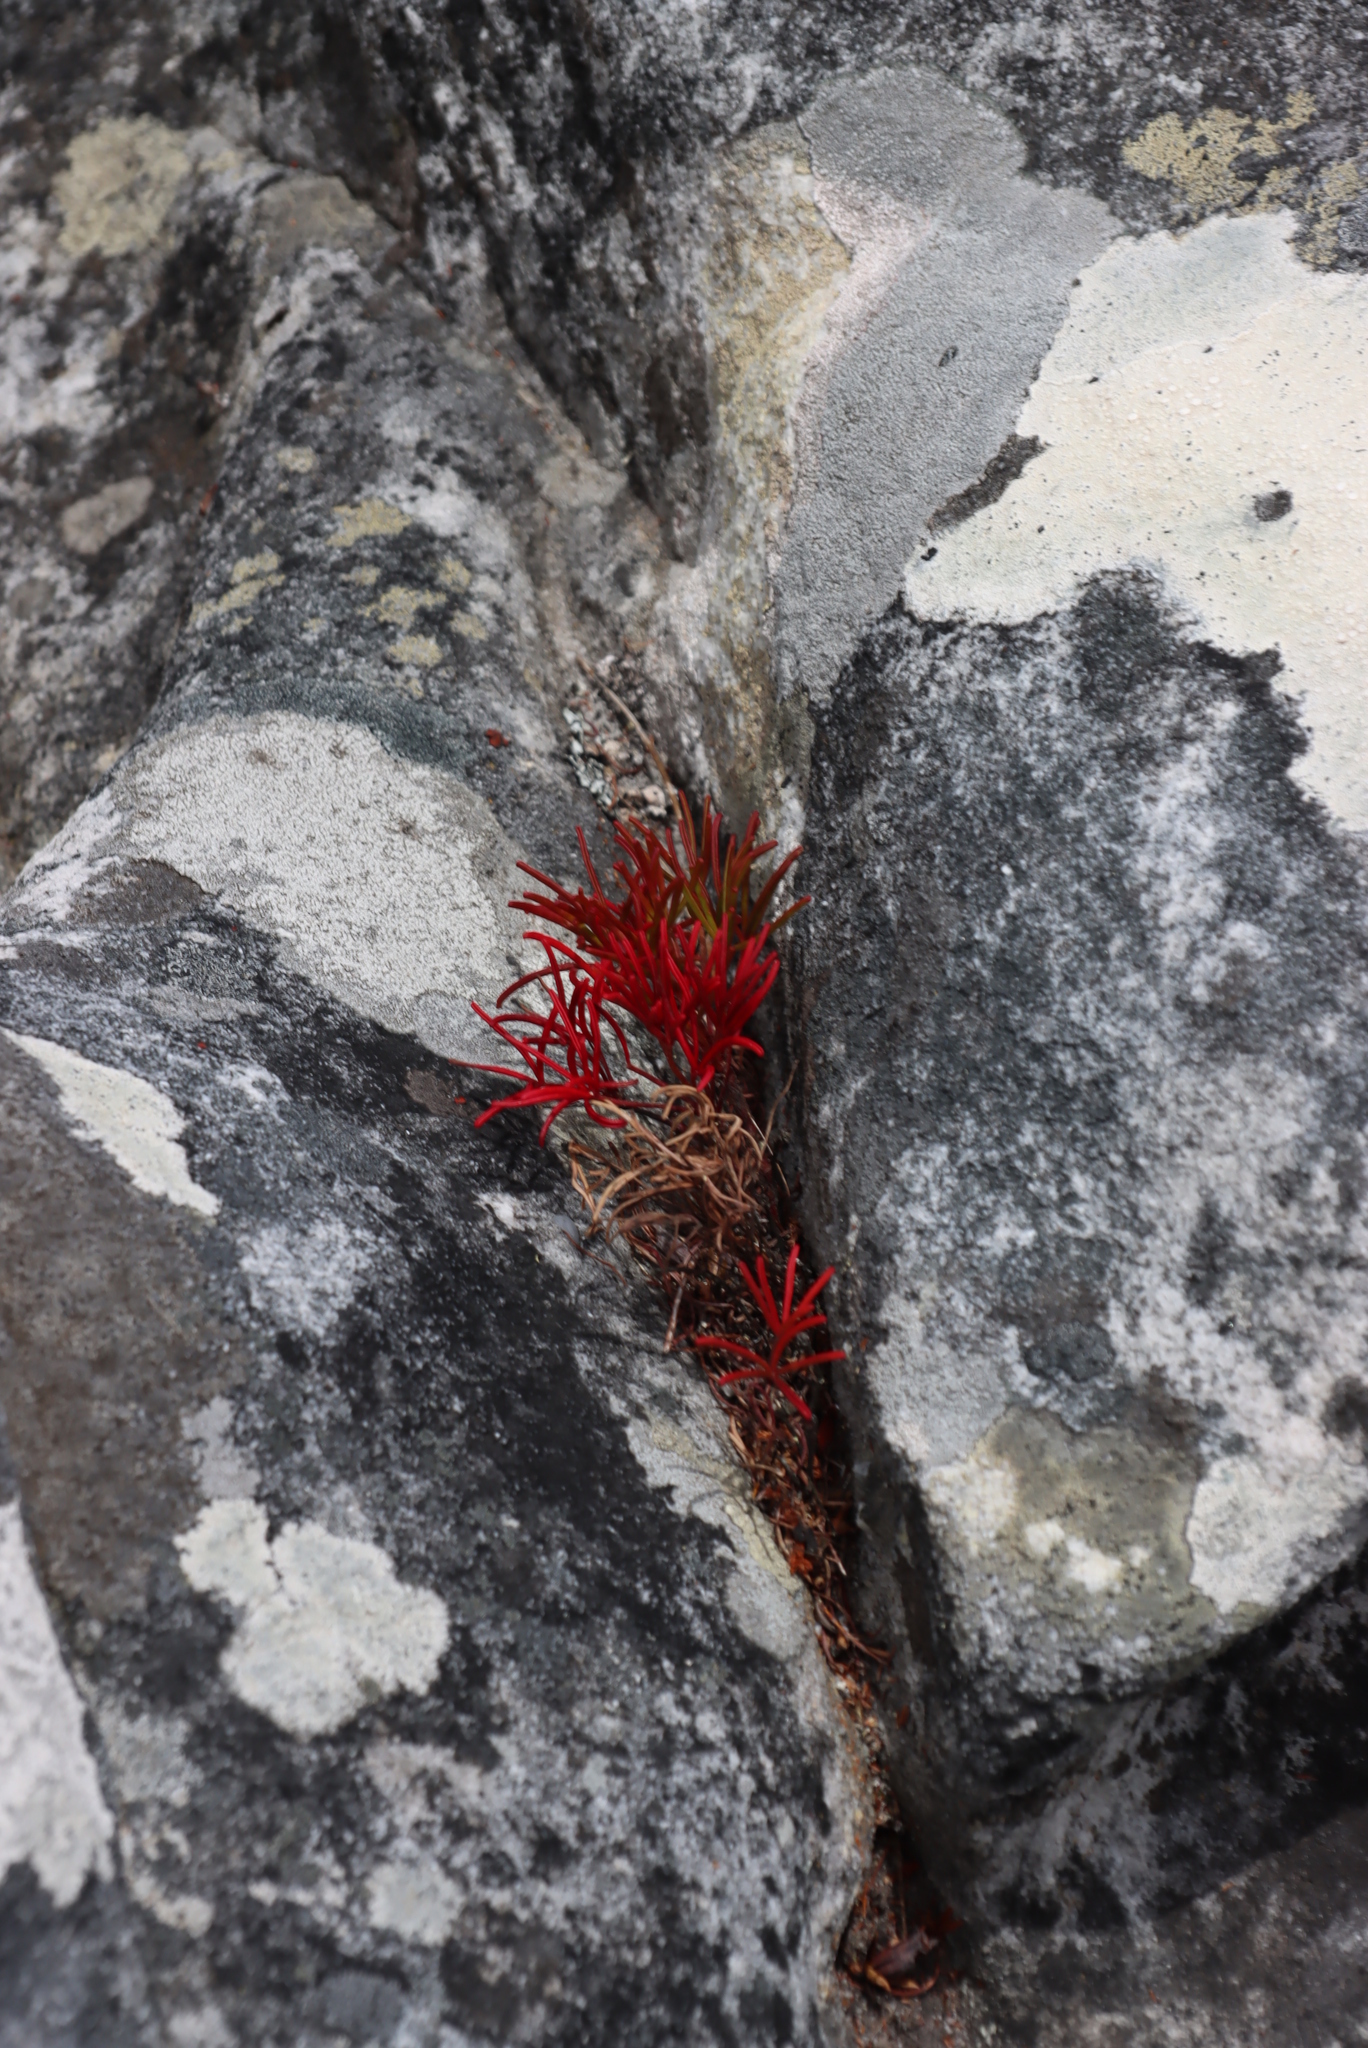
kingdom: Plantae
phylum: Tracheophyta
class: Magnoliopsida
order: Oxalidales
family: Oxalidaceae
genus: Oxalis
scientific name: Oxalis polyphylla
